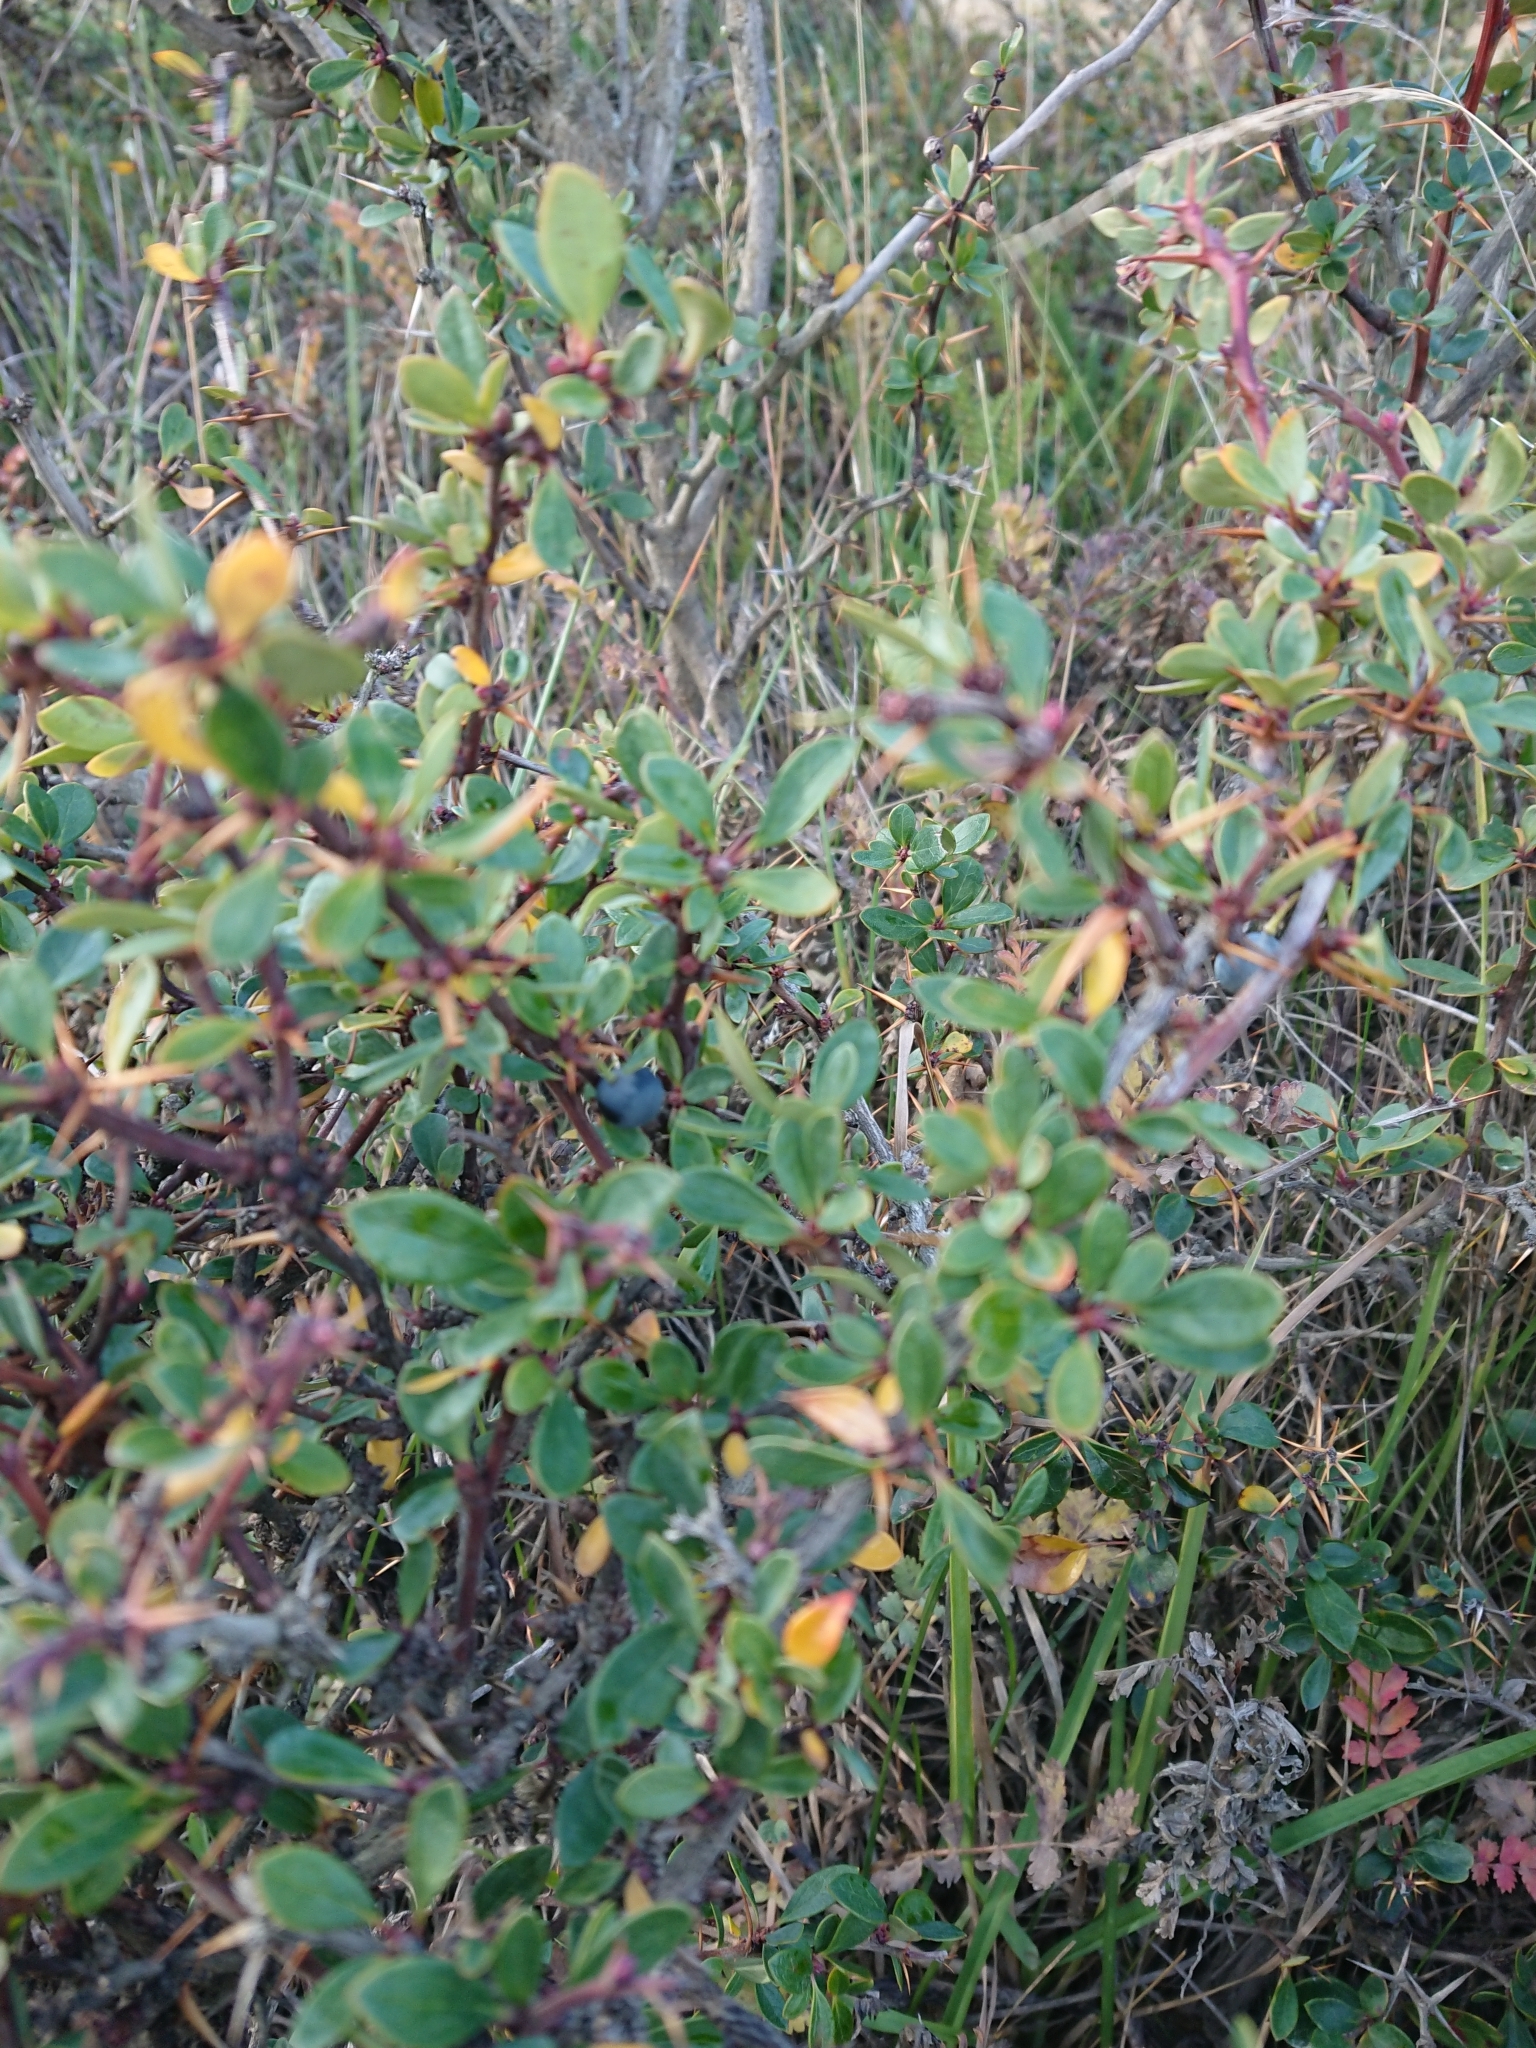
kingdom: Plantae
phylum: Tracheophyta
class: Magnoliopsida
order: Ranunculales
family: Berberidaceae
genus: Berberis
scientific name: Berberis microphylla
